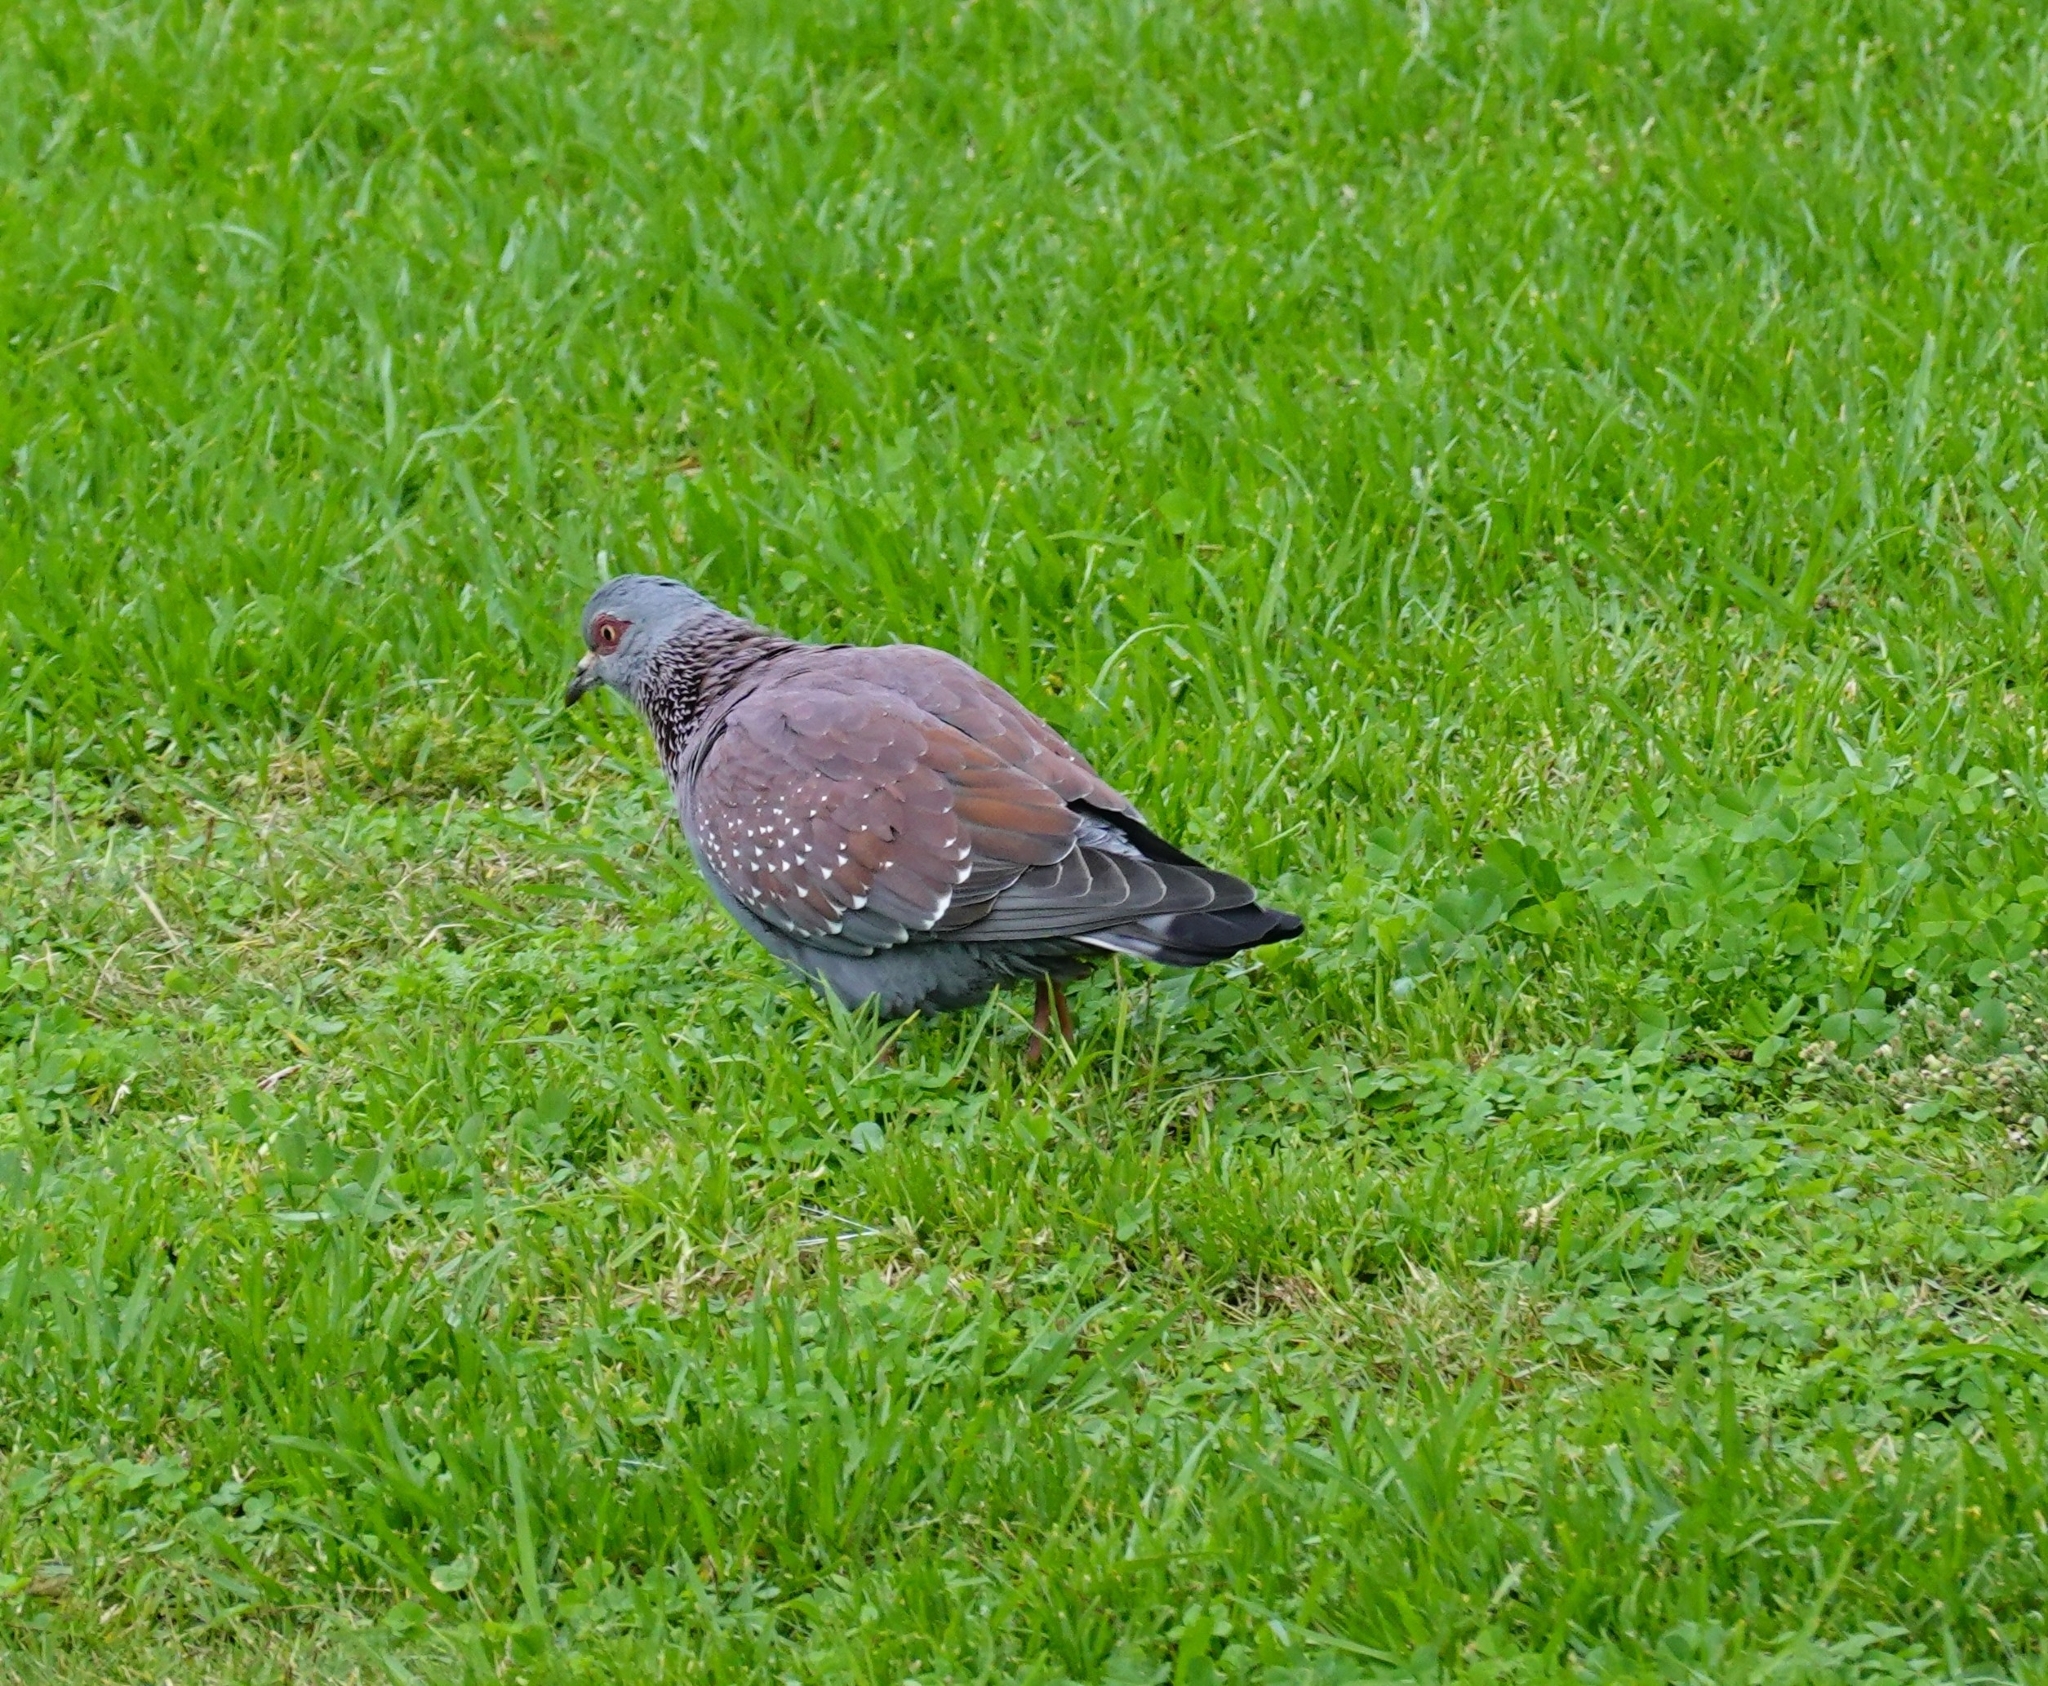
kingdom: Animalia
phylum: Chordata
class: Aves
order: Columbiformes
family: Columbidae
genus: Columba
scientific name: Columba guinea
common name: Speckled pigeon
